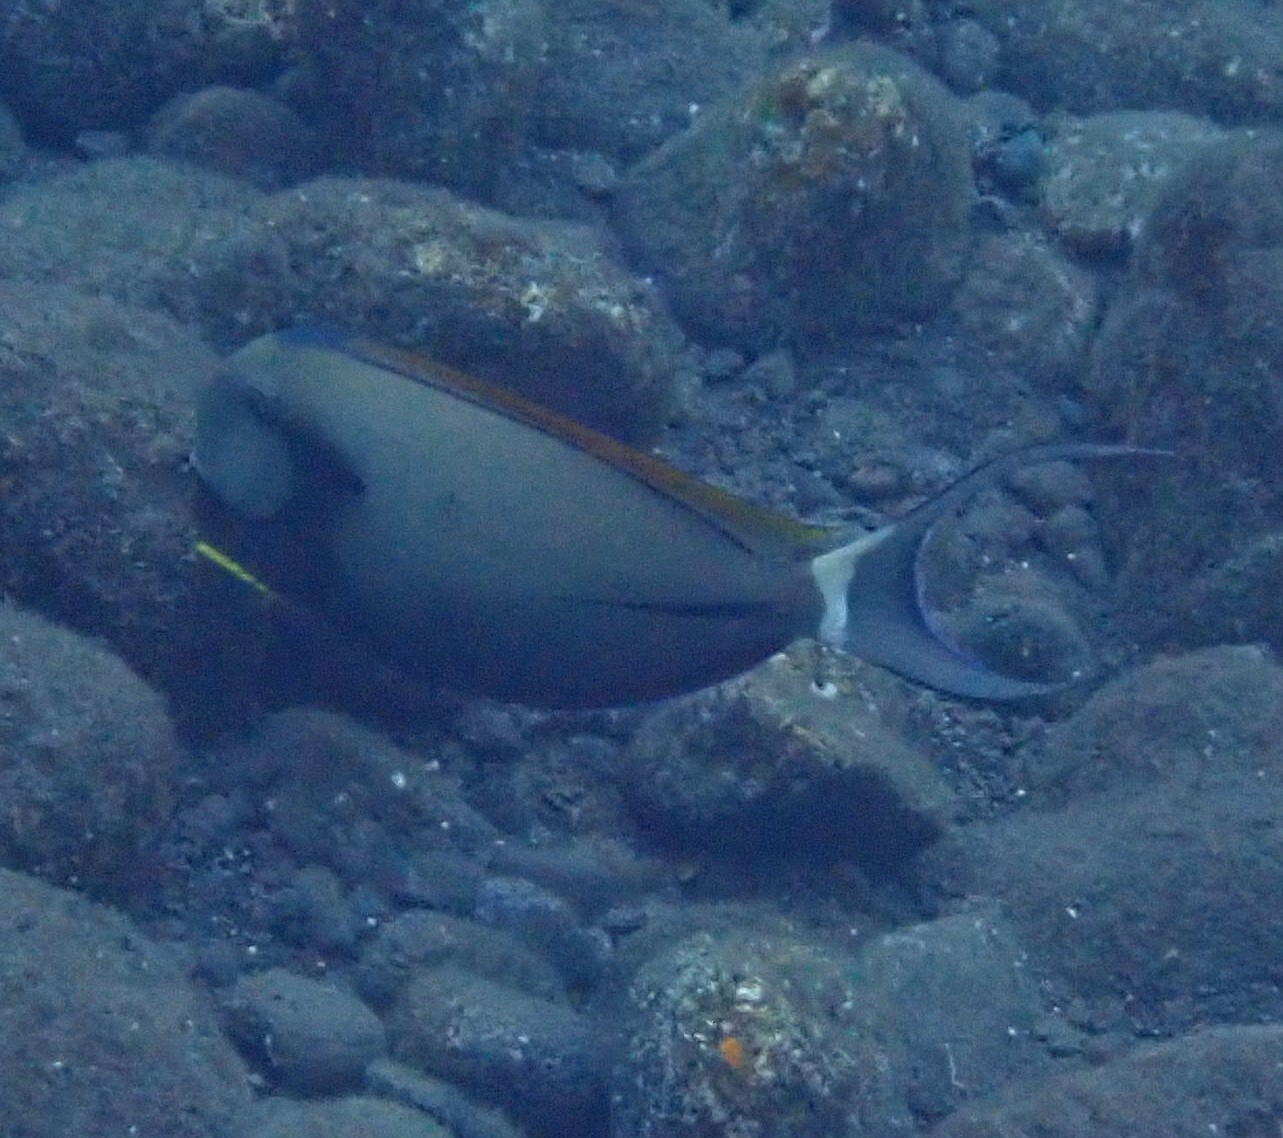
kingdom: Animalia
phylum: Chordata
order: Perciformes
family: Acanthuridae
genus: Acanthurus
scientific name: Acanthurus nigricauda
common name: Black-barred surgeonfish
